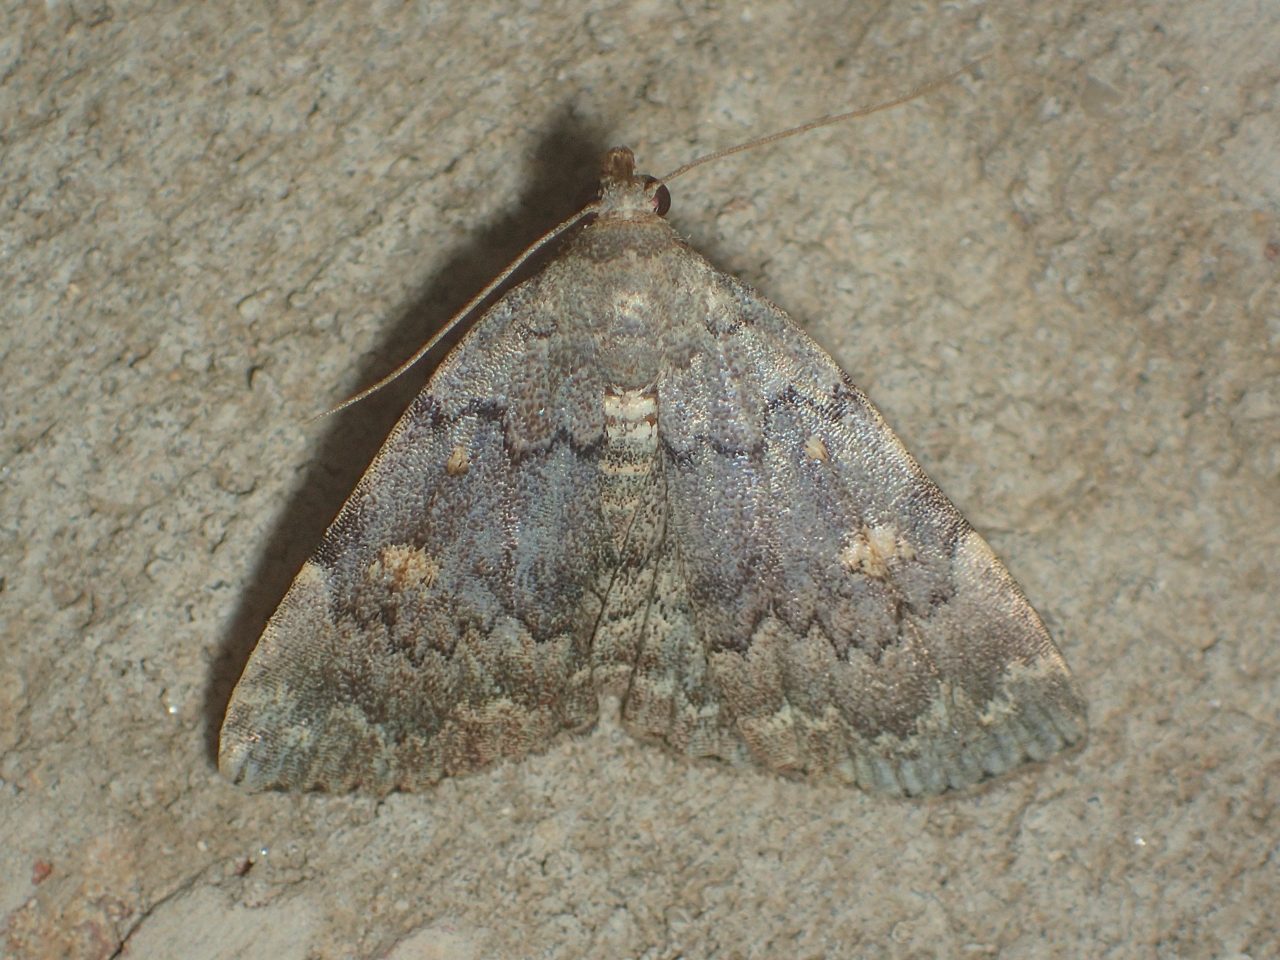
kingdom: Animalia
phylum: Arthropoda
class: Insecta
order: Lepidoptera
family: Erebidae
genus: Idia
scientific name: Idia aemula
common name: Common idia moth
